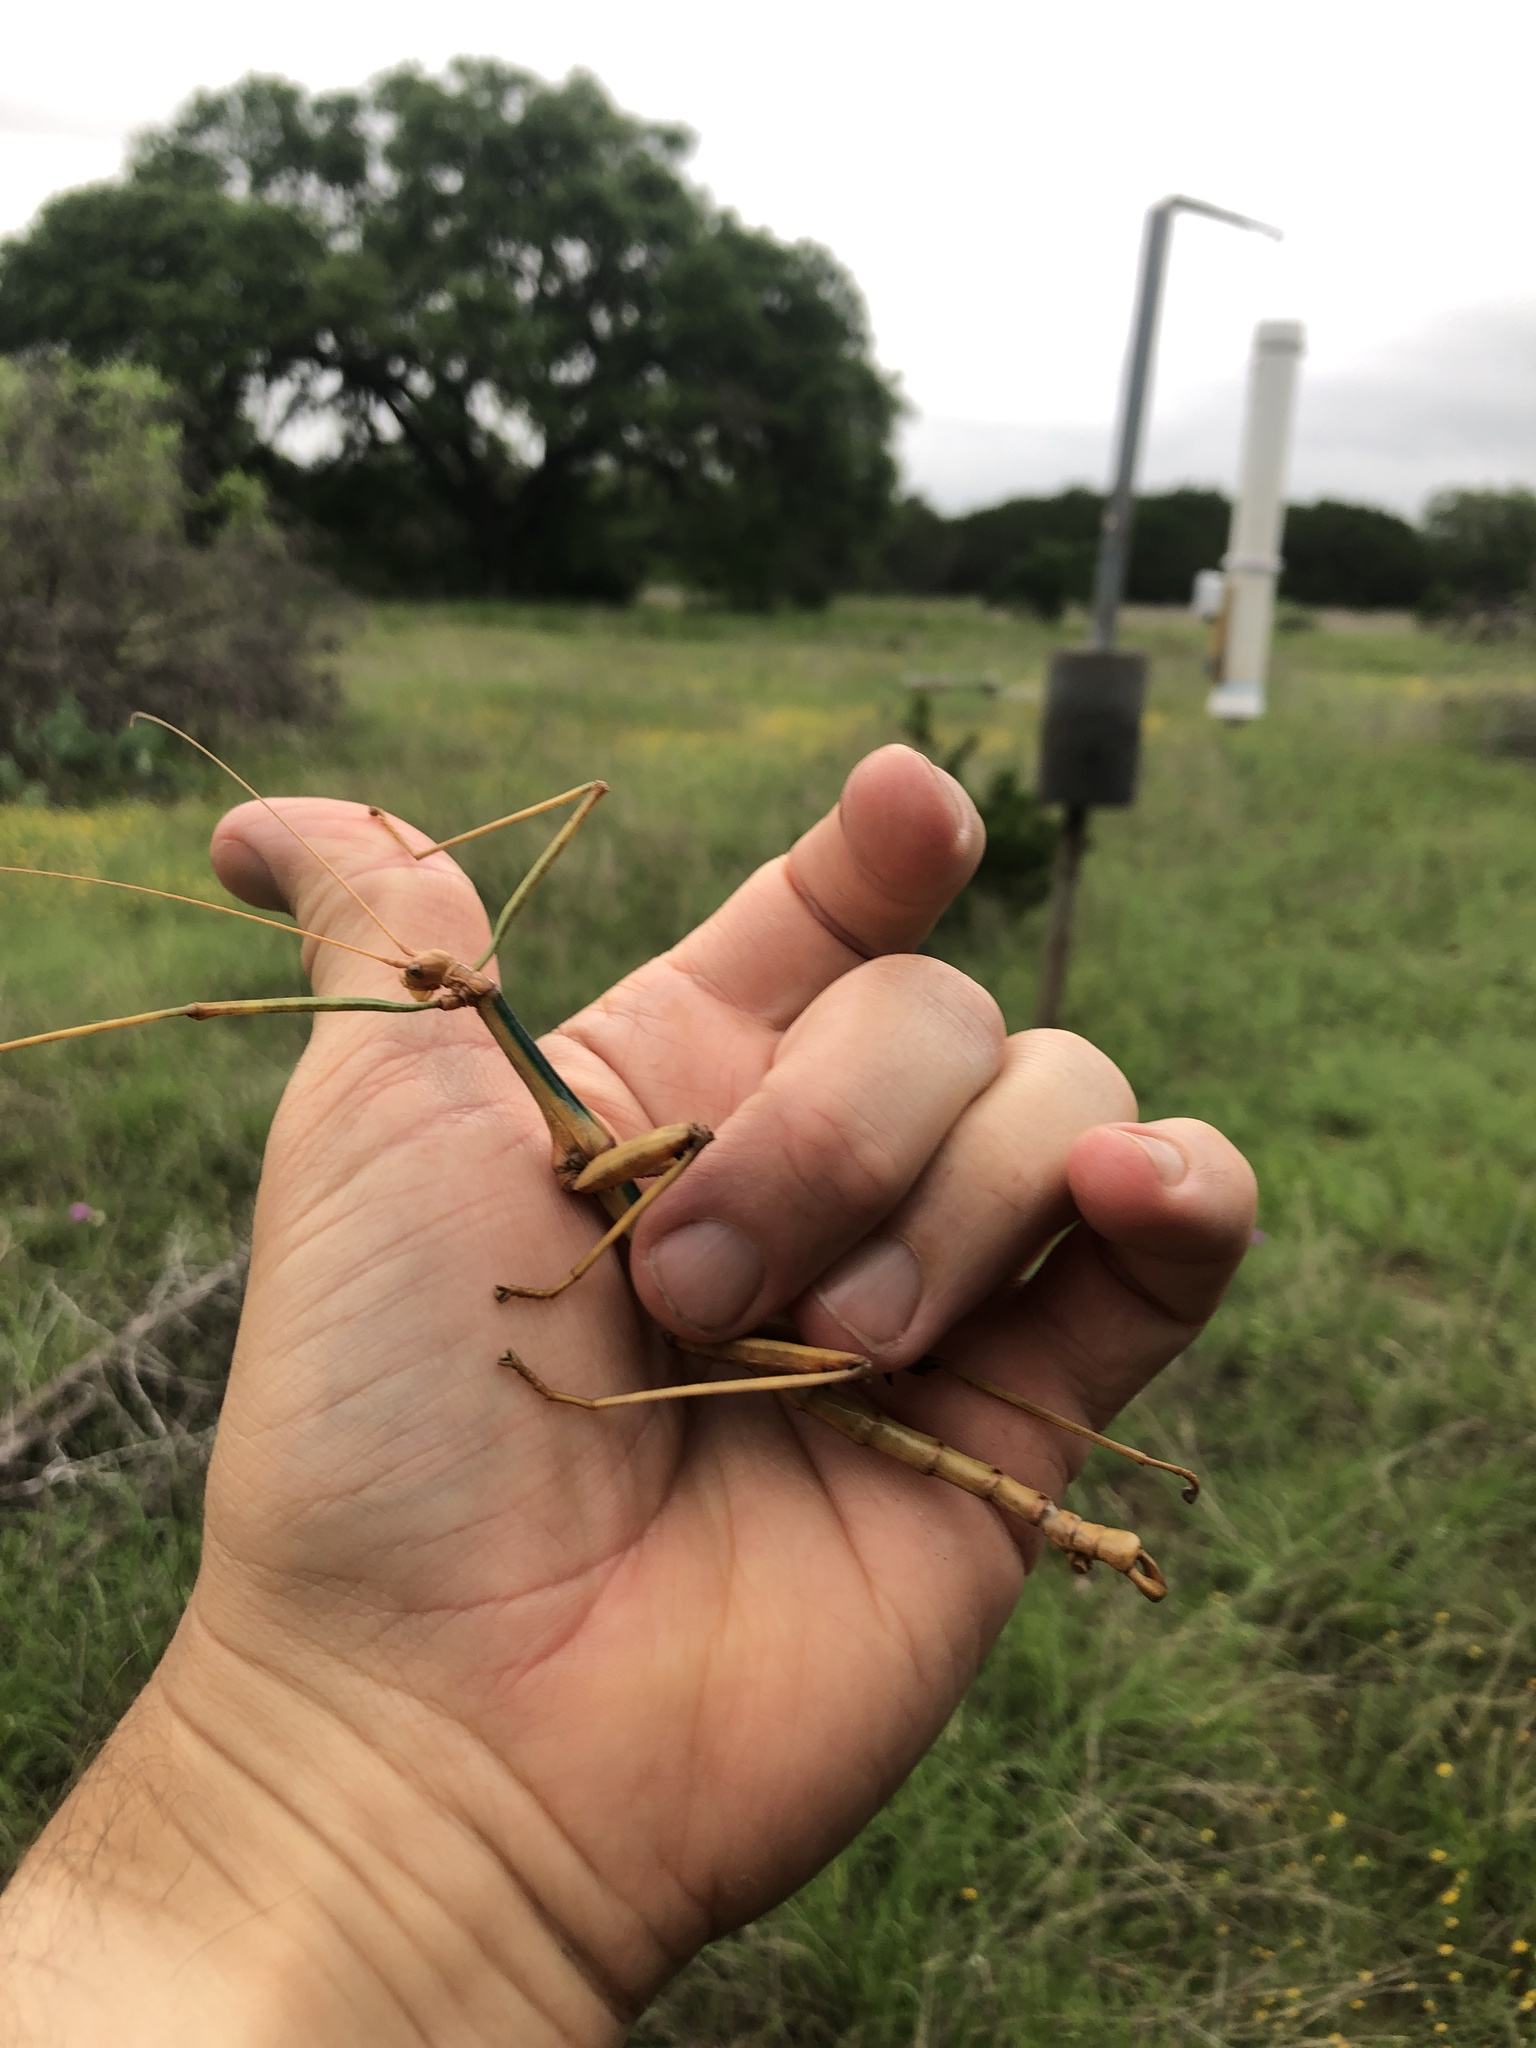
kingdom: Animalia
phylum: Arthropoda
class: Insecta
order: Phasmida
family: Diapheromeridae
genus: Megaphasma
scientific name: Megaphasma denticrus
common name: Giant walkingstick
